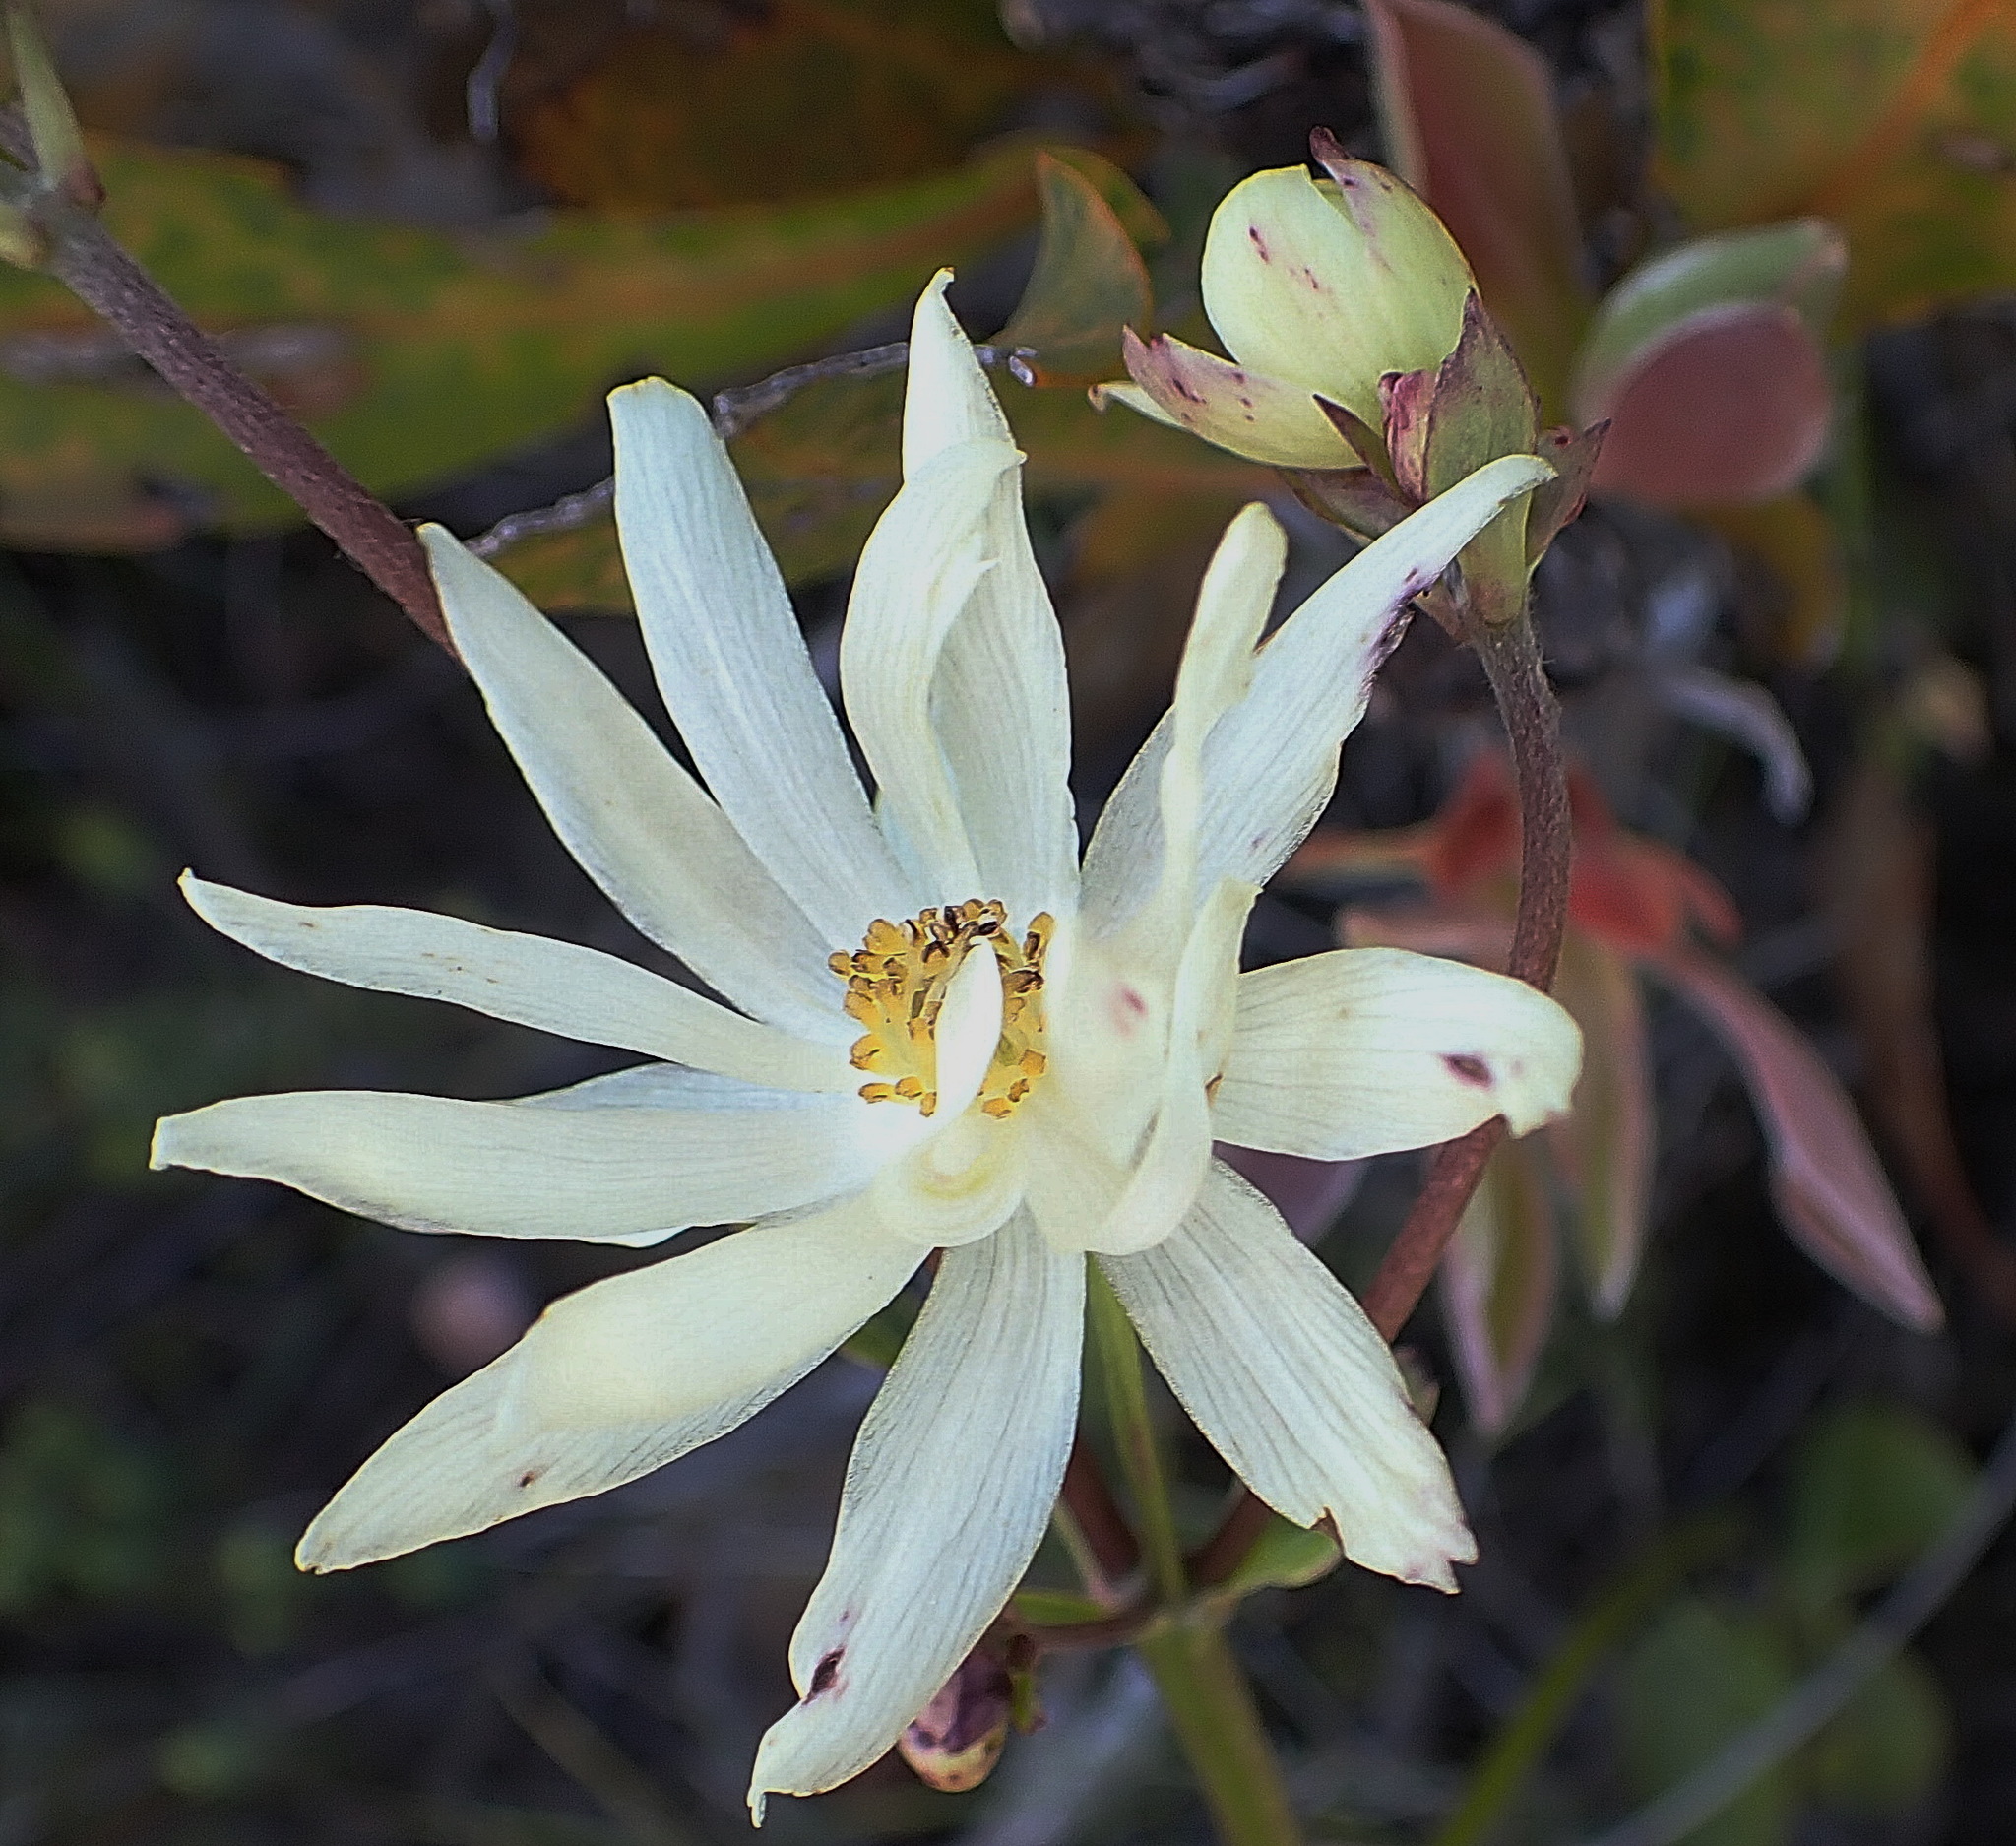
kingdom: Plantae
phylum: Tracheophyta
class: Magnoliopsida
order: Ranunculales
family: Ranunculaceae
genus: Knowltonia
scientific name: Knowltonia vesicatoria
